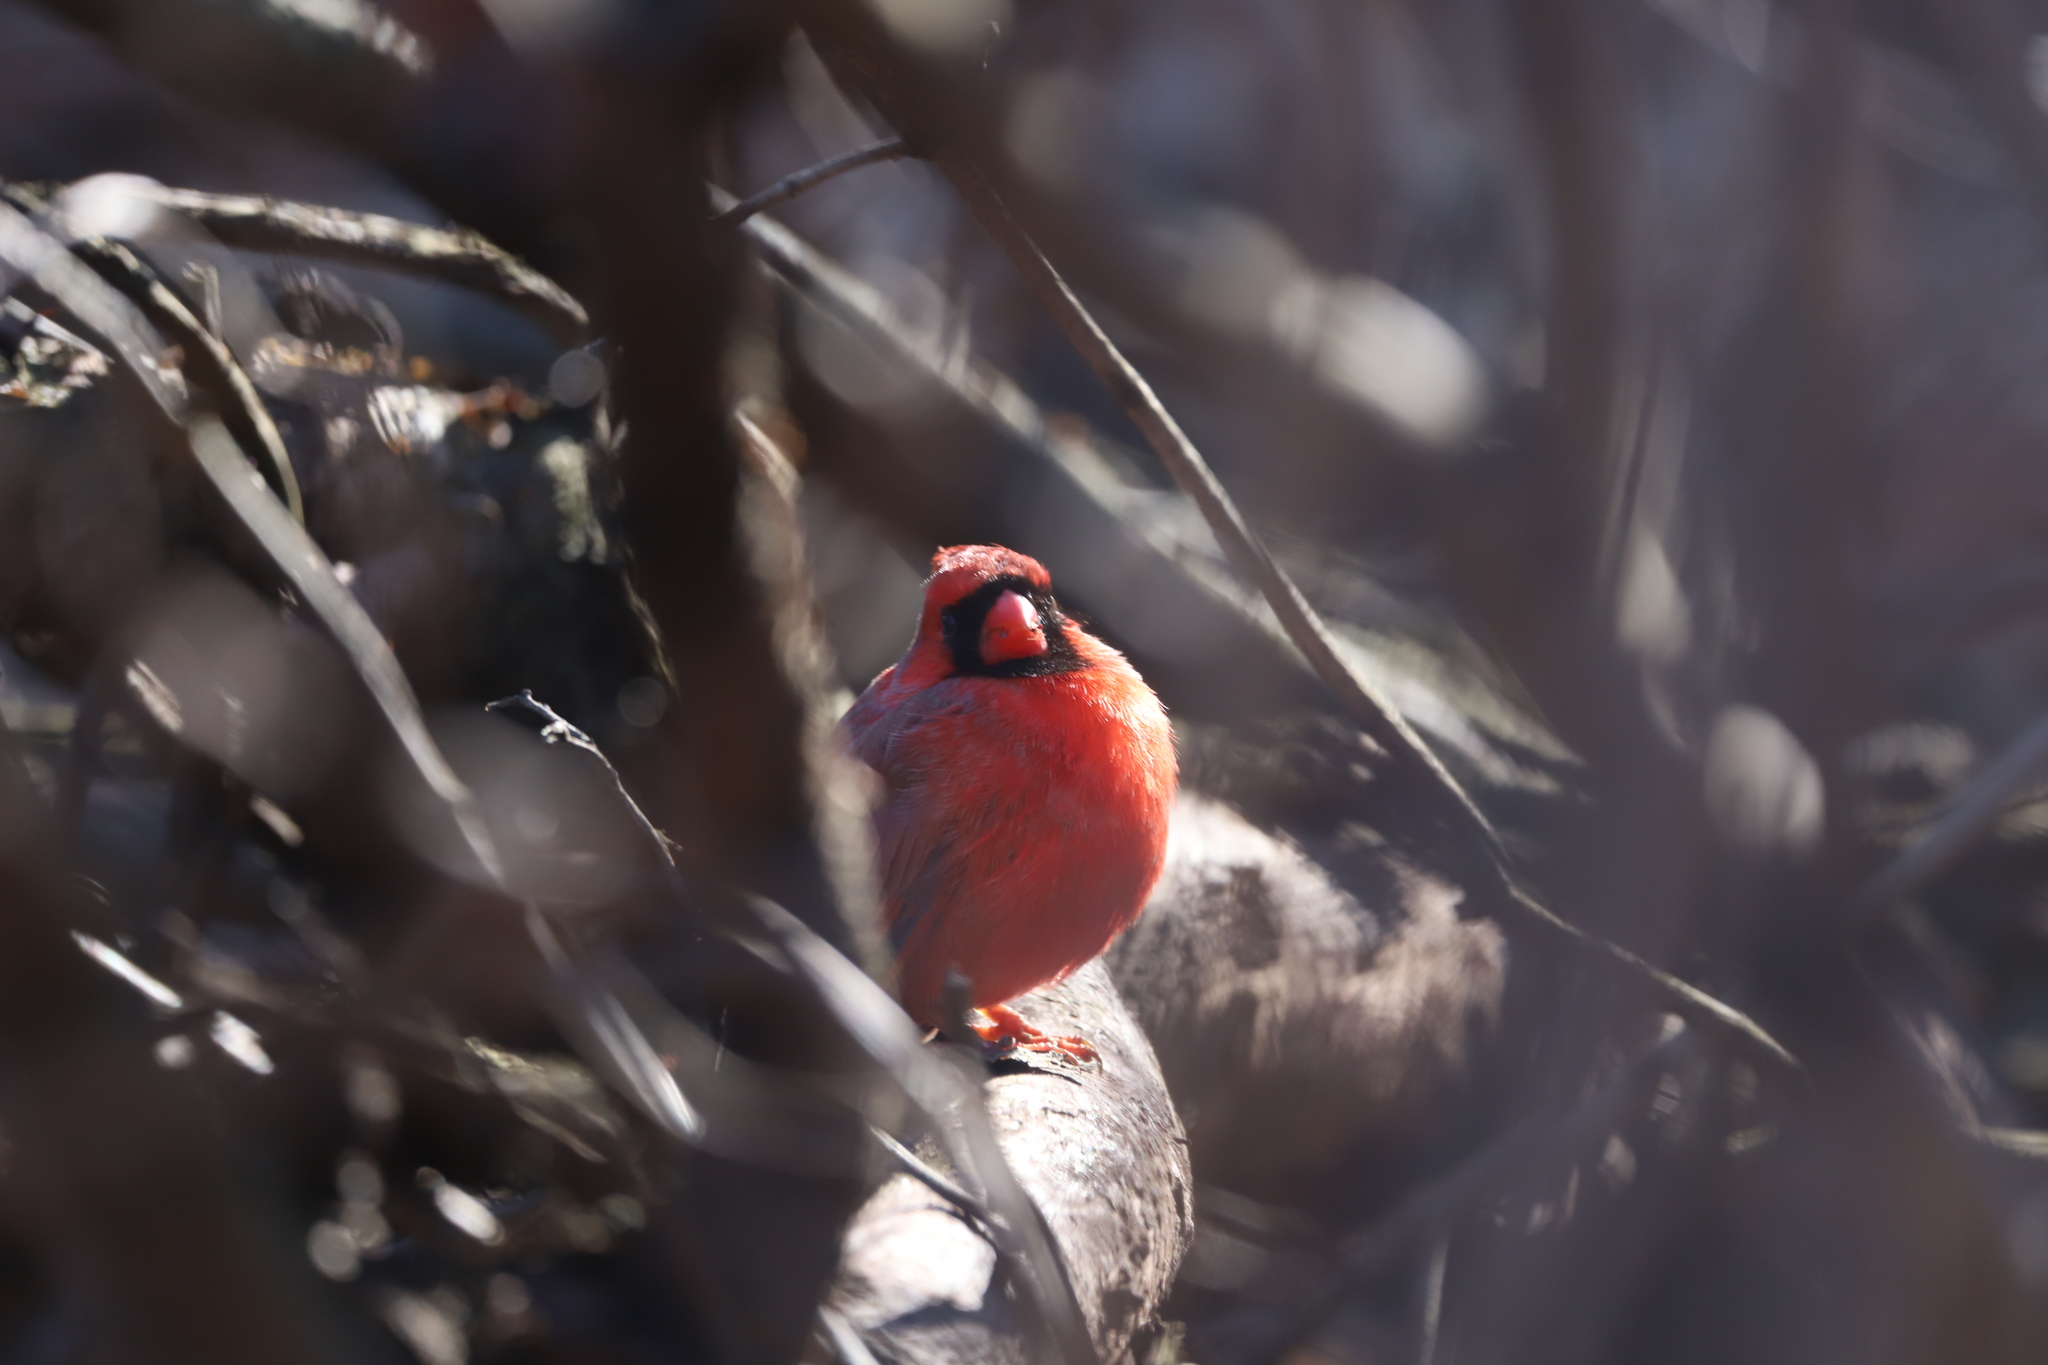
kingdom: Animalia
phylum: Chordata
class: Aves
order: Passeriformes
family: Cardinalidae
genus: Cardinalis
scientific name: Cardinalis cardinalis
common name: Northern cardinal
